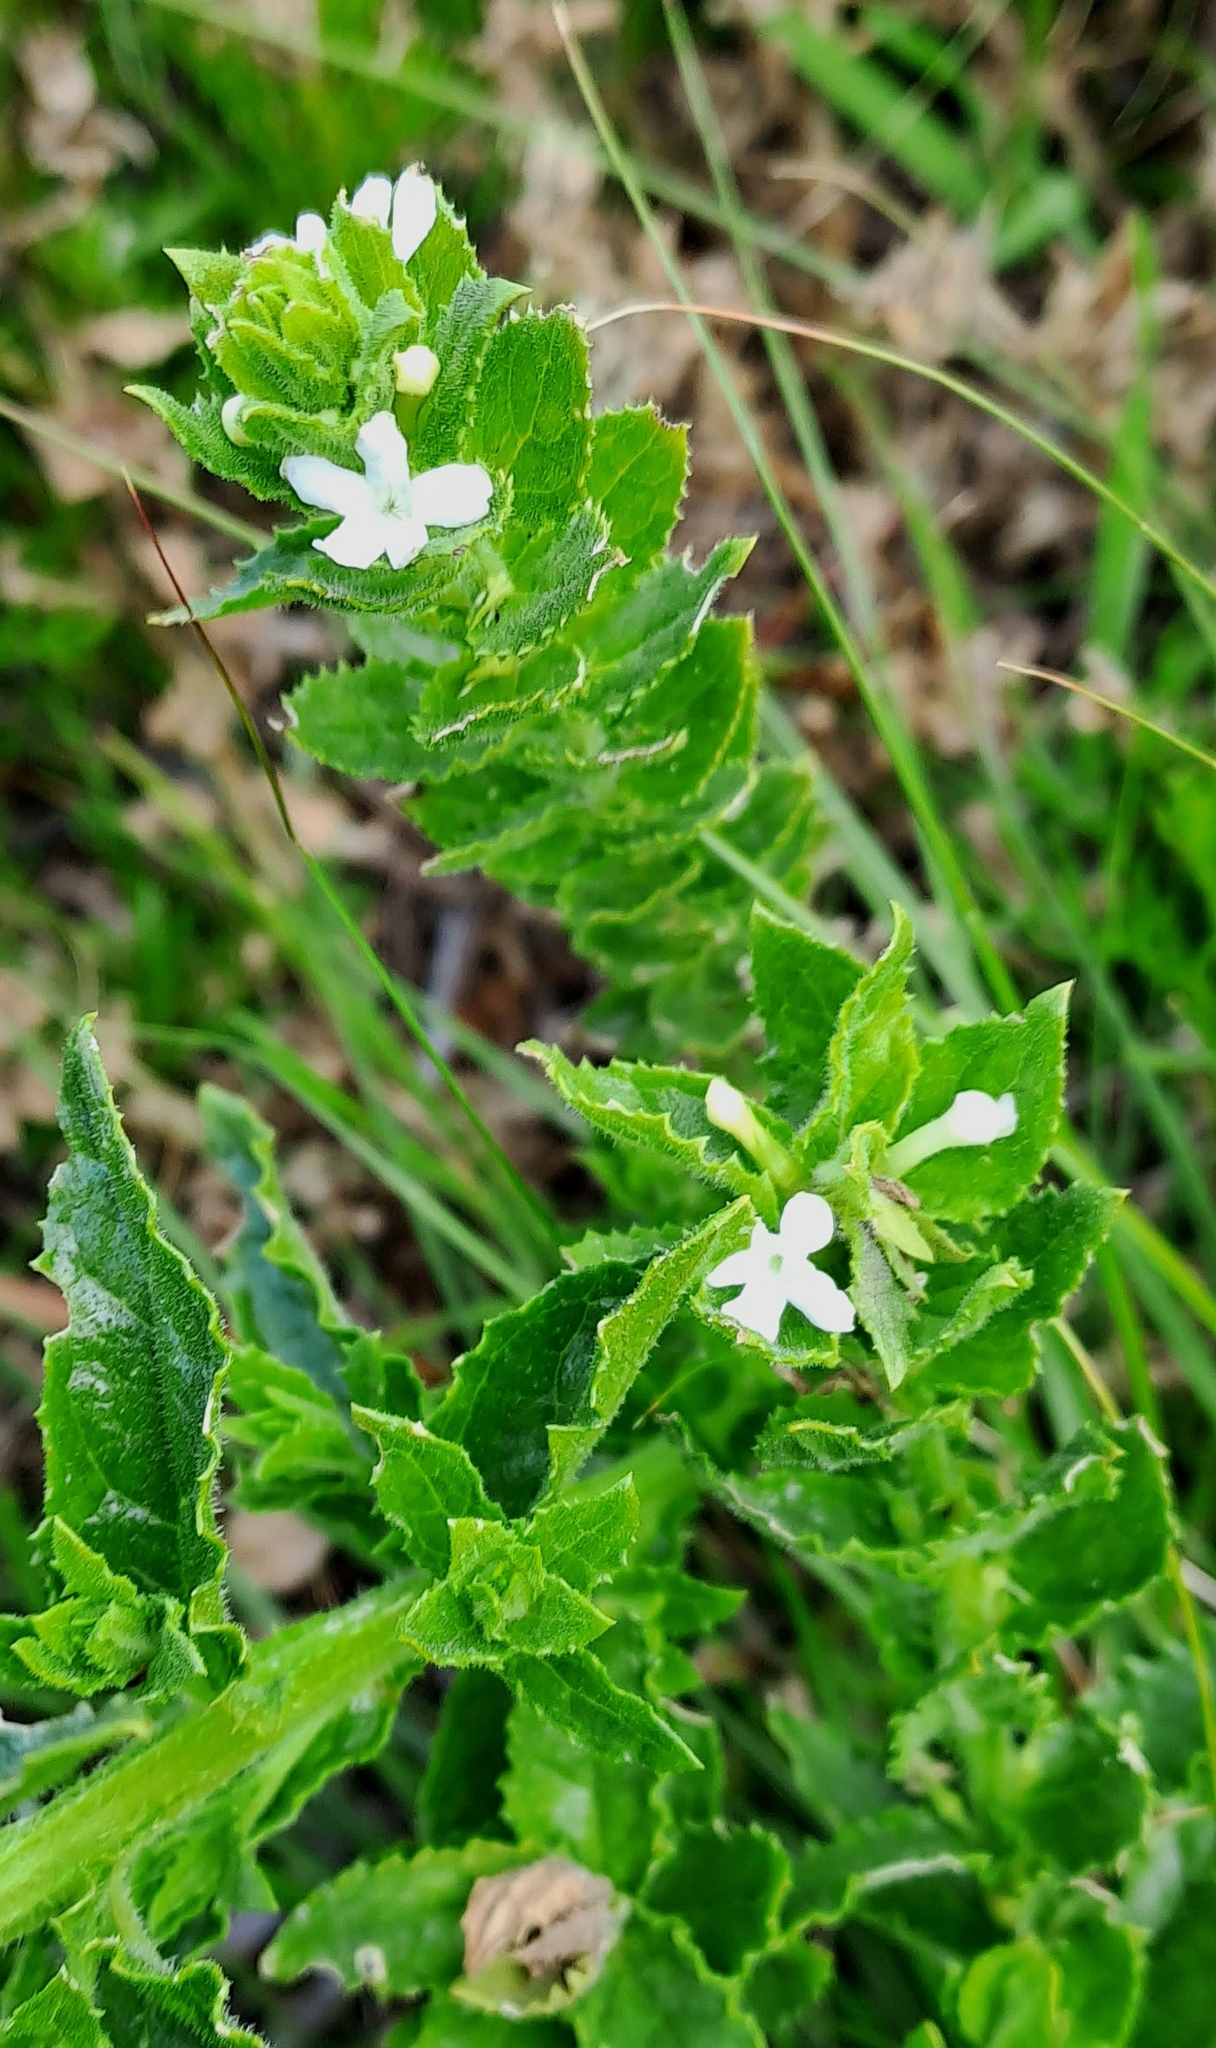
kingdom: Plantae
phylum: Tracheophyta
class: Magnoliopsida
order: Lamiales
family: Scrophulariaceae
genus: Oftia
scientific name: Oftia africana
